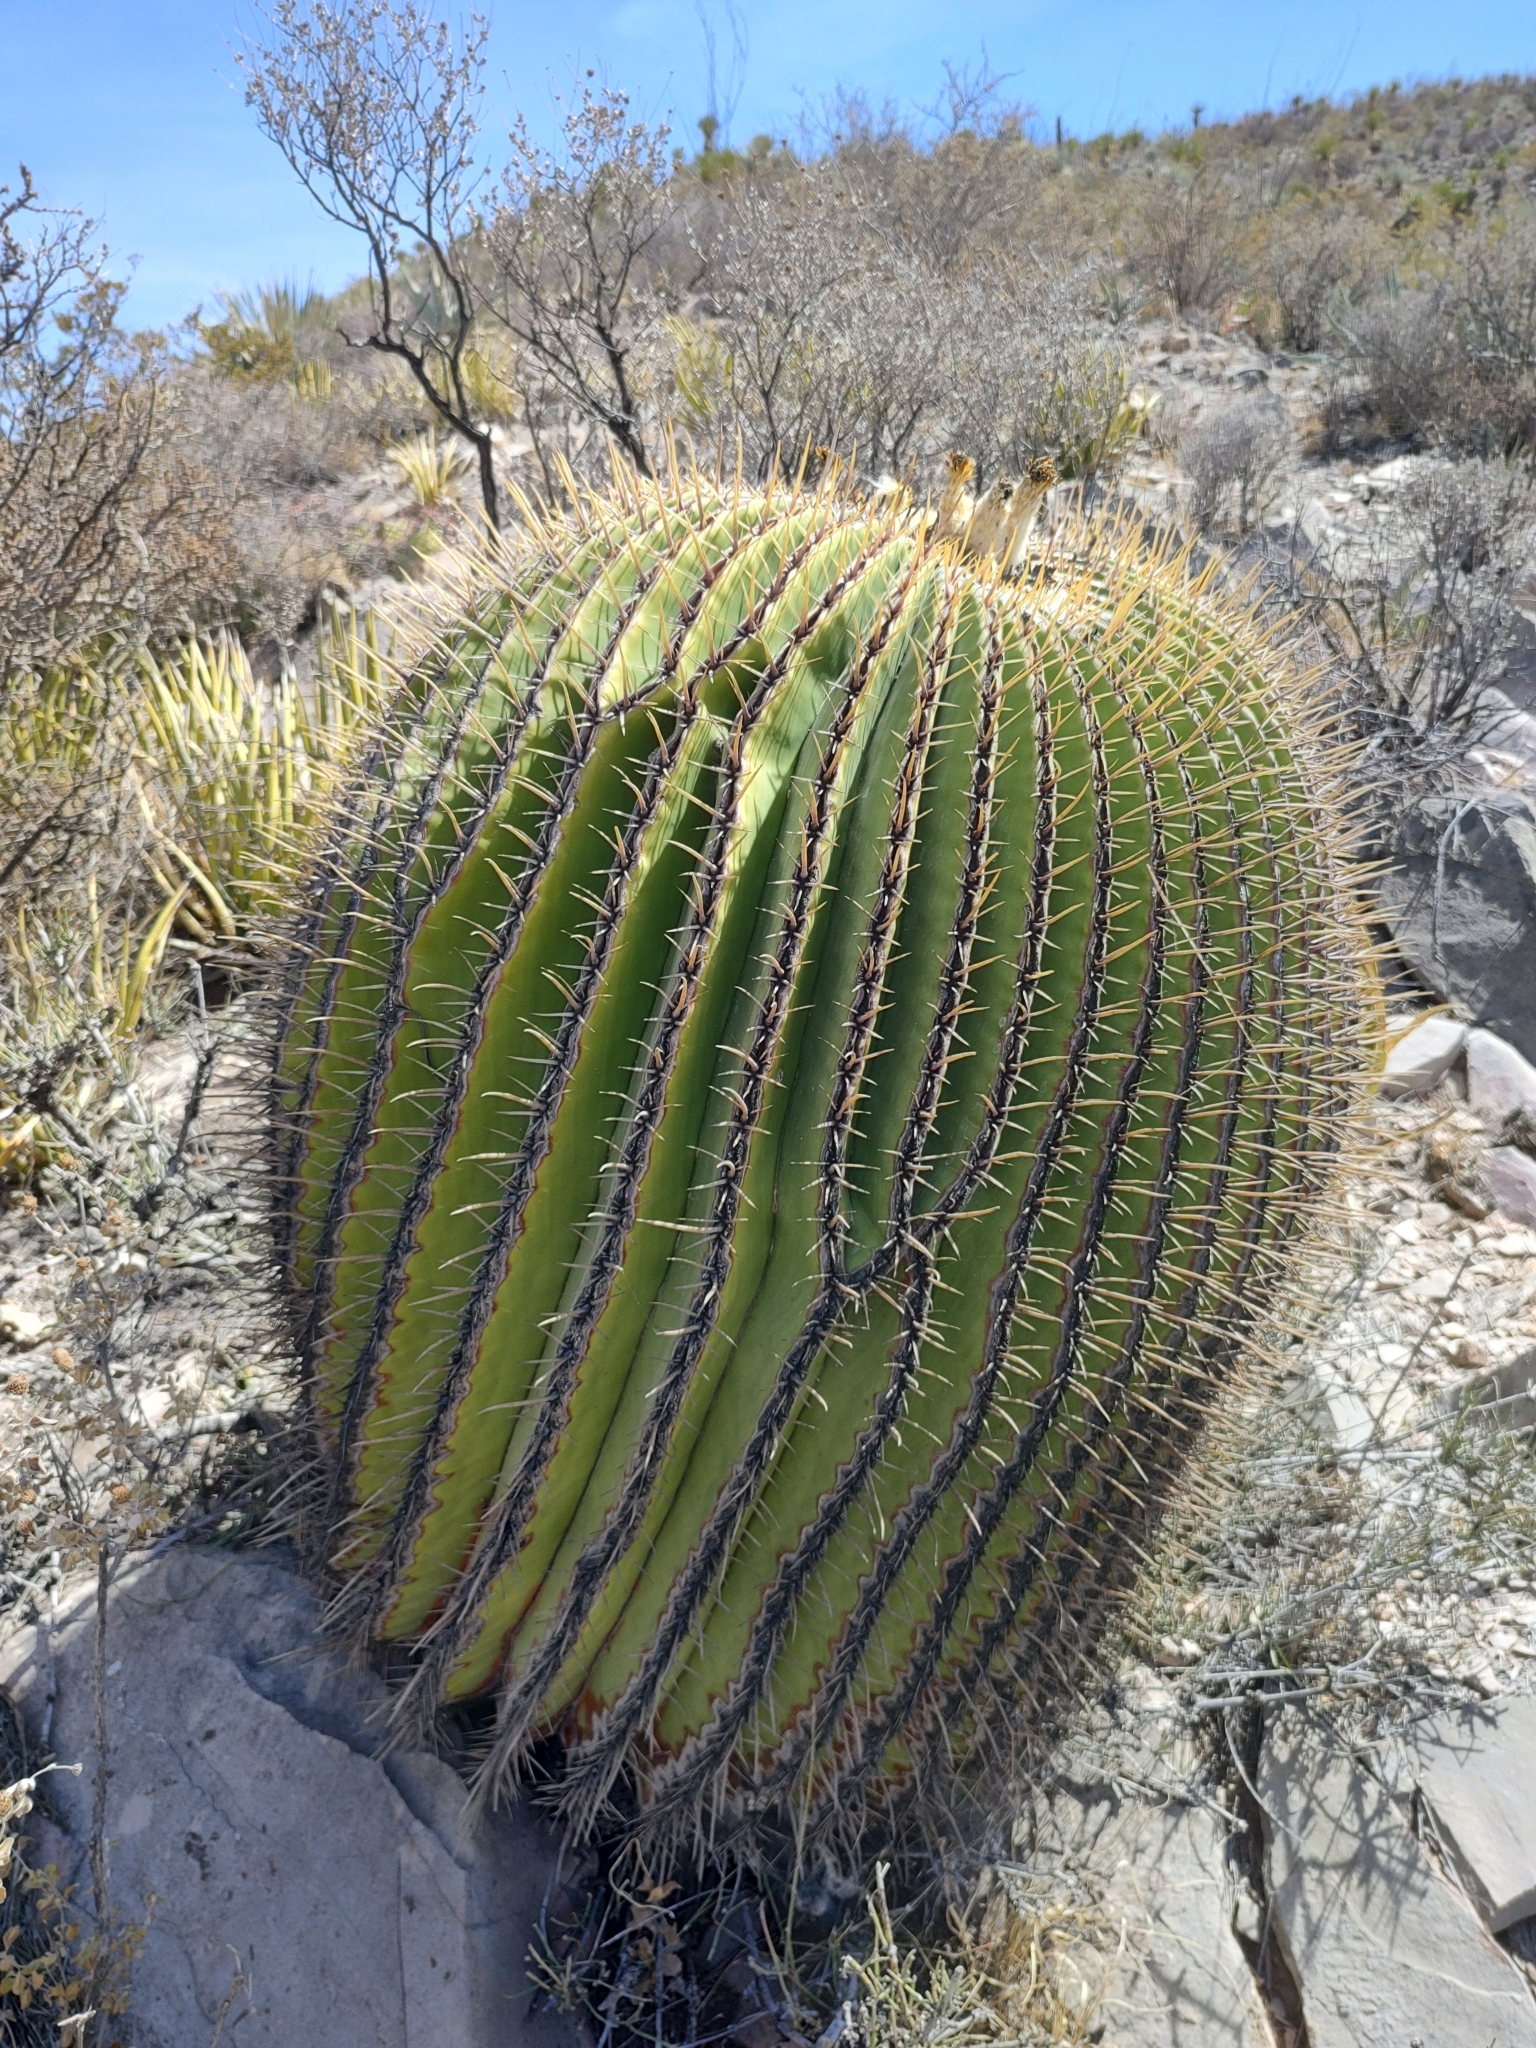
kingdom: Plantae
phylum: Tracheophyta
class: Magnoliopsida
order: Caryophyllales
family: Cactaceae
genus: Echinocactus
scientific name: Echinocactus platyacanthus
